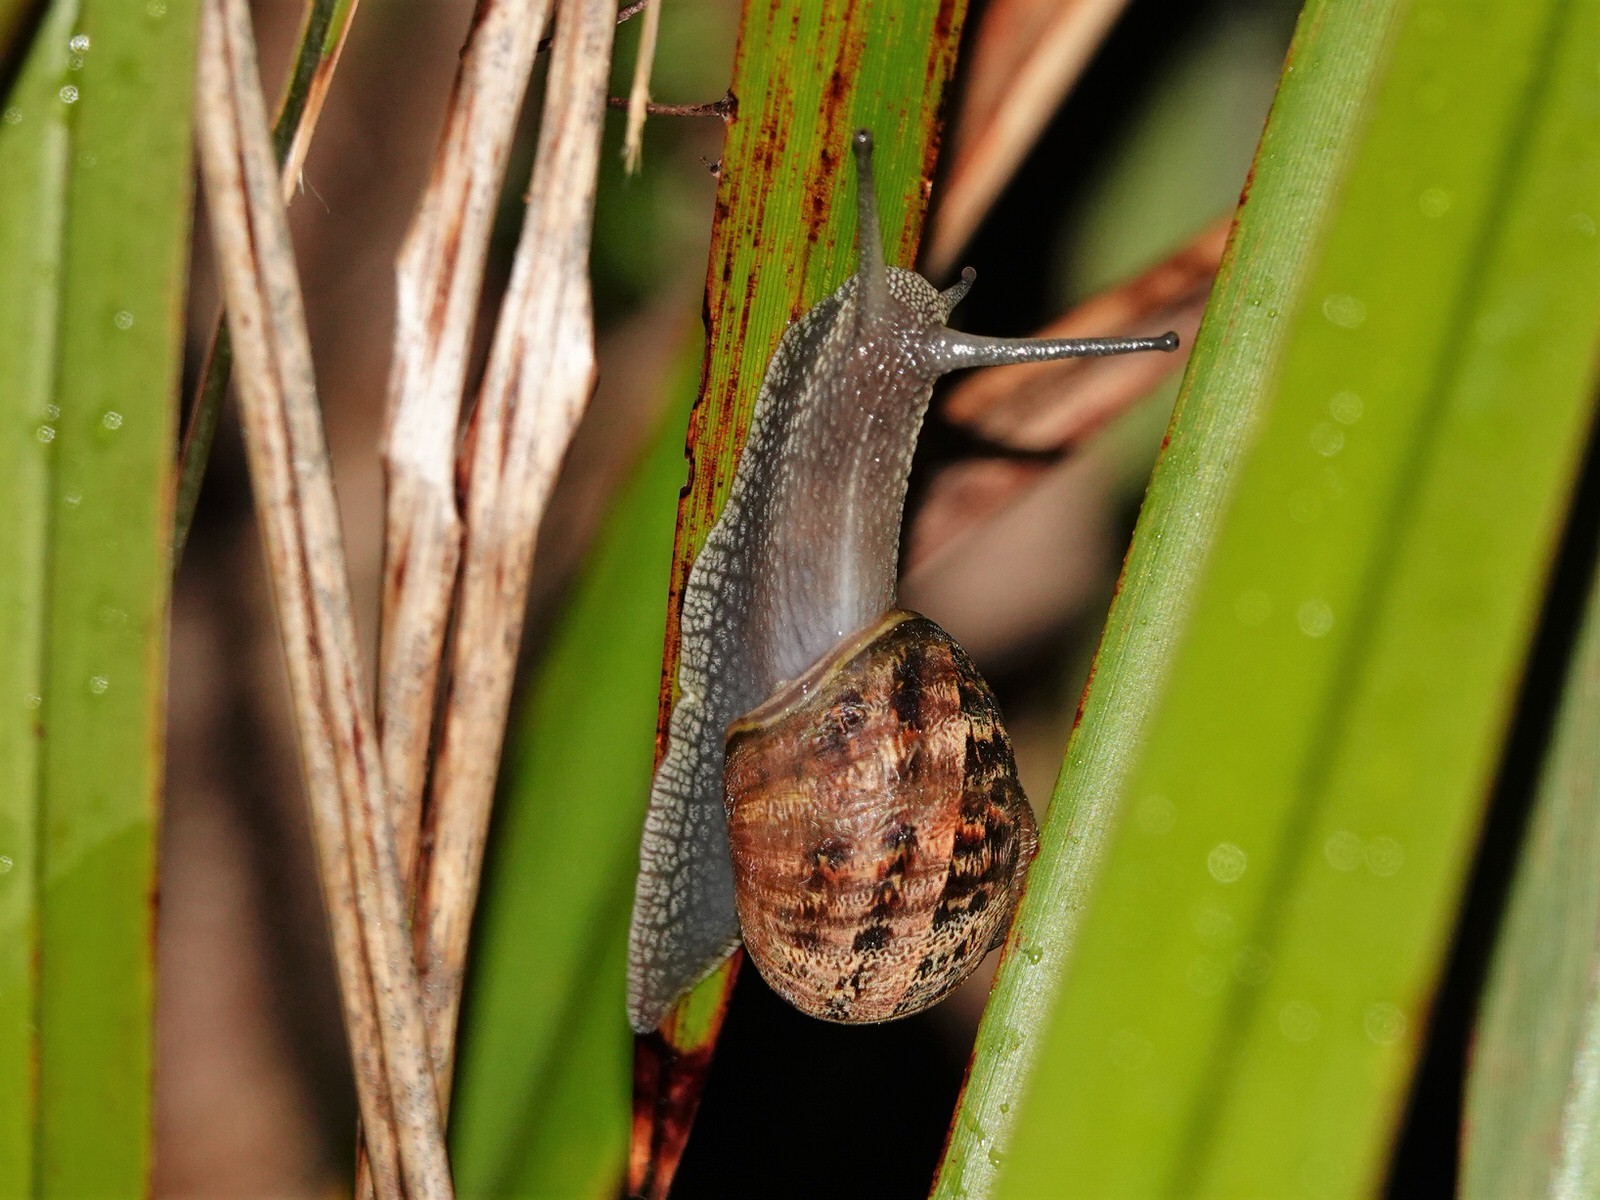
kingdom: Animalia
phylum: Mollusca
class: Gastropoda
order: Stylommatophora
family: Helicidae
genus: Cornu
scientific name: Cornu aspersum
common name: Brown garden snail
